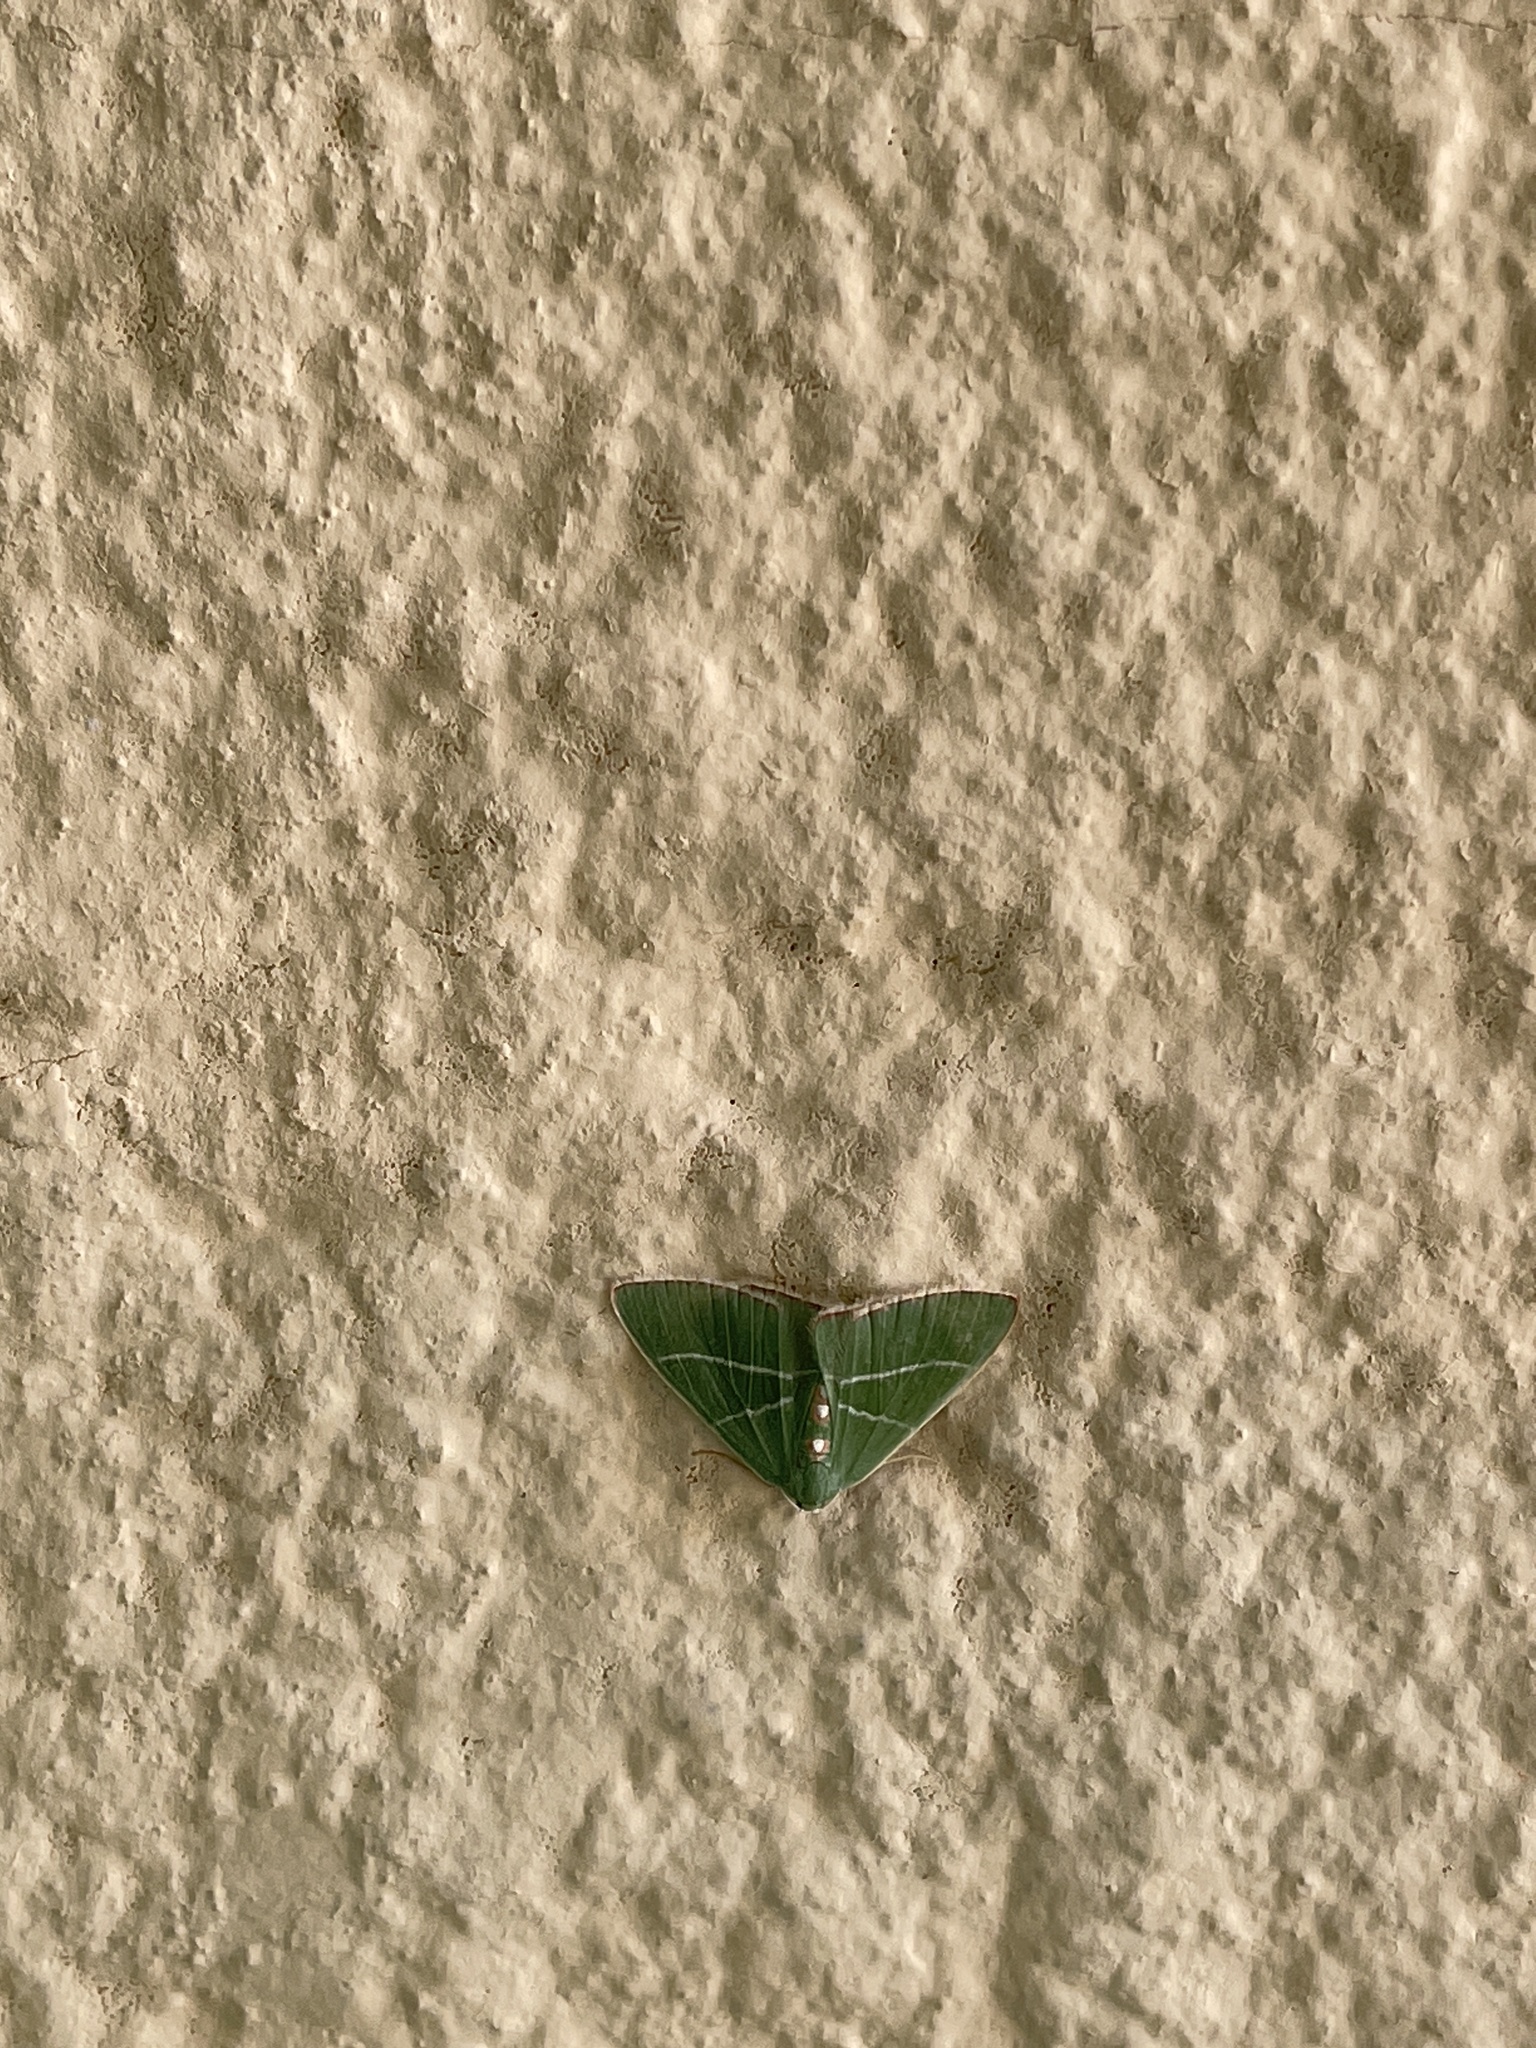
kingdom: Animalia
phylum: Arthropoda
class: Insecta
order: Lepidoptera
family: Geometridae
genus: Nemoria
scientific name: Nemoria obliqua
